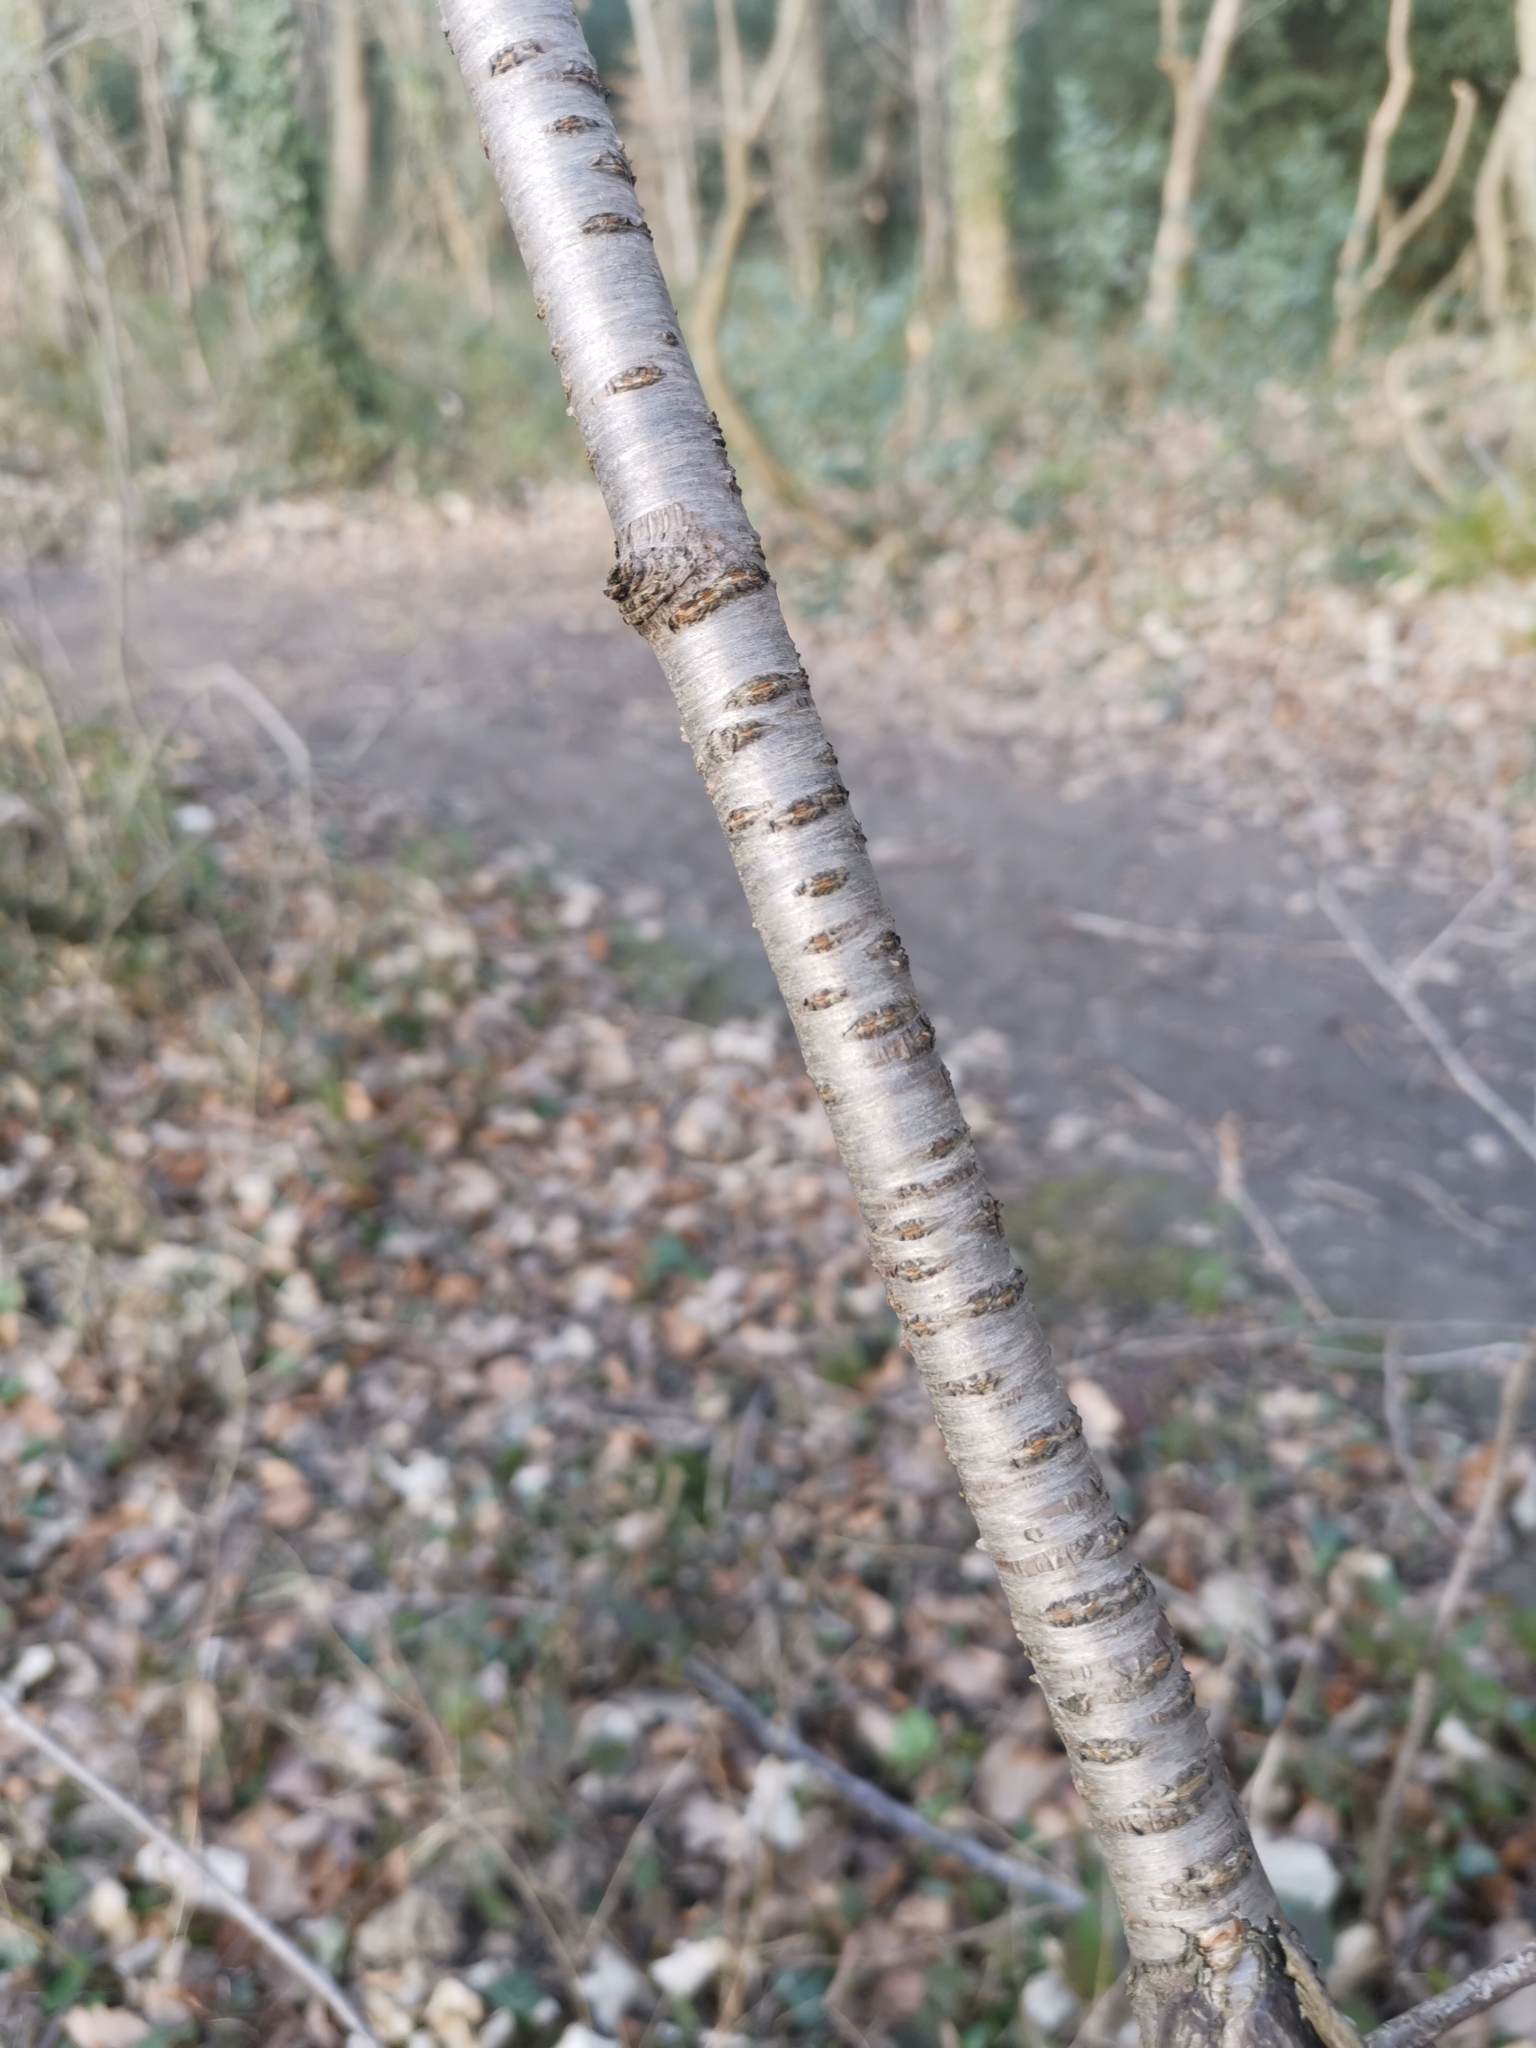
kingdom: Plantae
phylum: Tracheophyta
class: Magnoliopsida
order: Rosales
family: Rosaceae
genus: Prunus
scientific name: Prunus avium
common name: Sweet cherry
